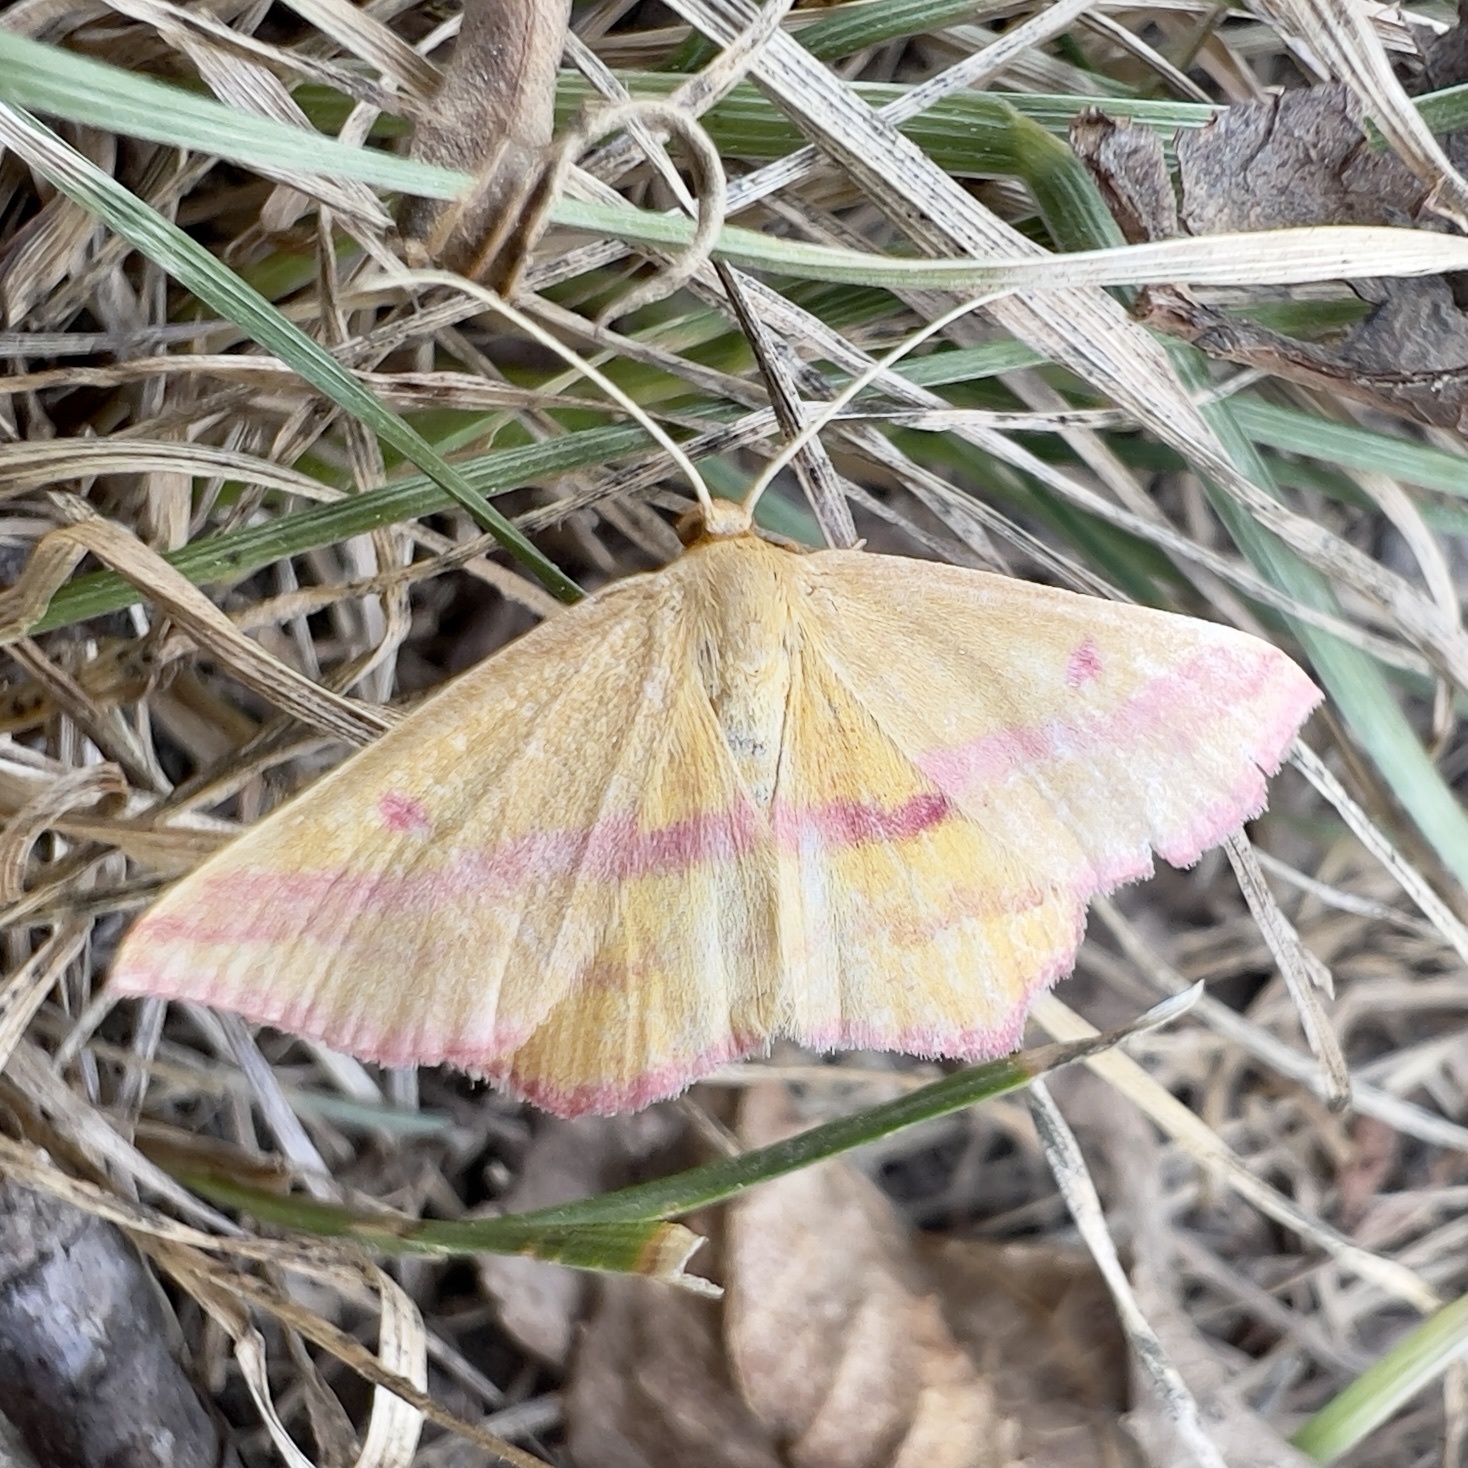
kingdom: Animalia
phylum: Arthropoda
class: Insecta
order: Lepidoptera
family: Geometridae
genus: Haematopis
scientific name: Haematopis grataria
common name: Chickweed geometer
